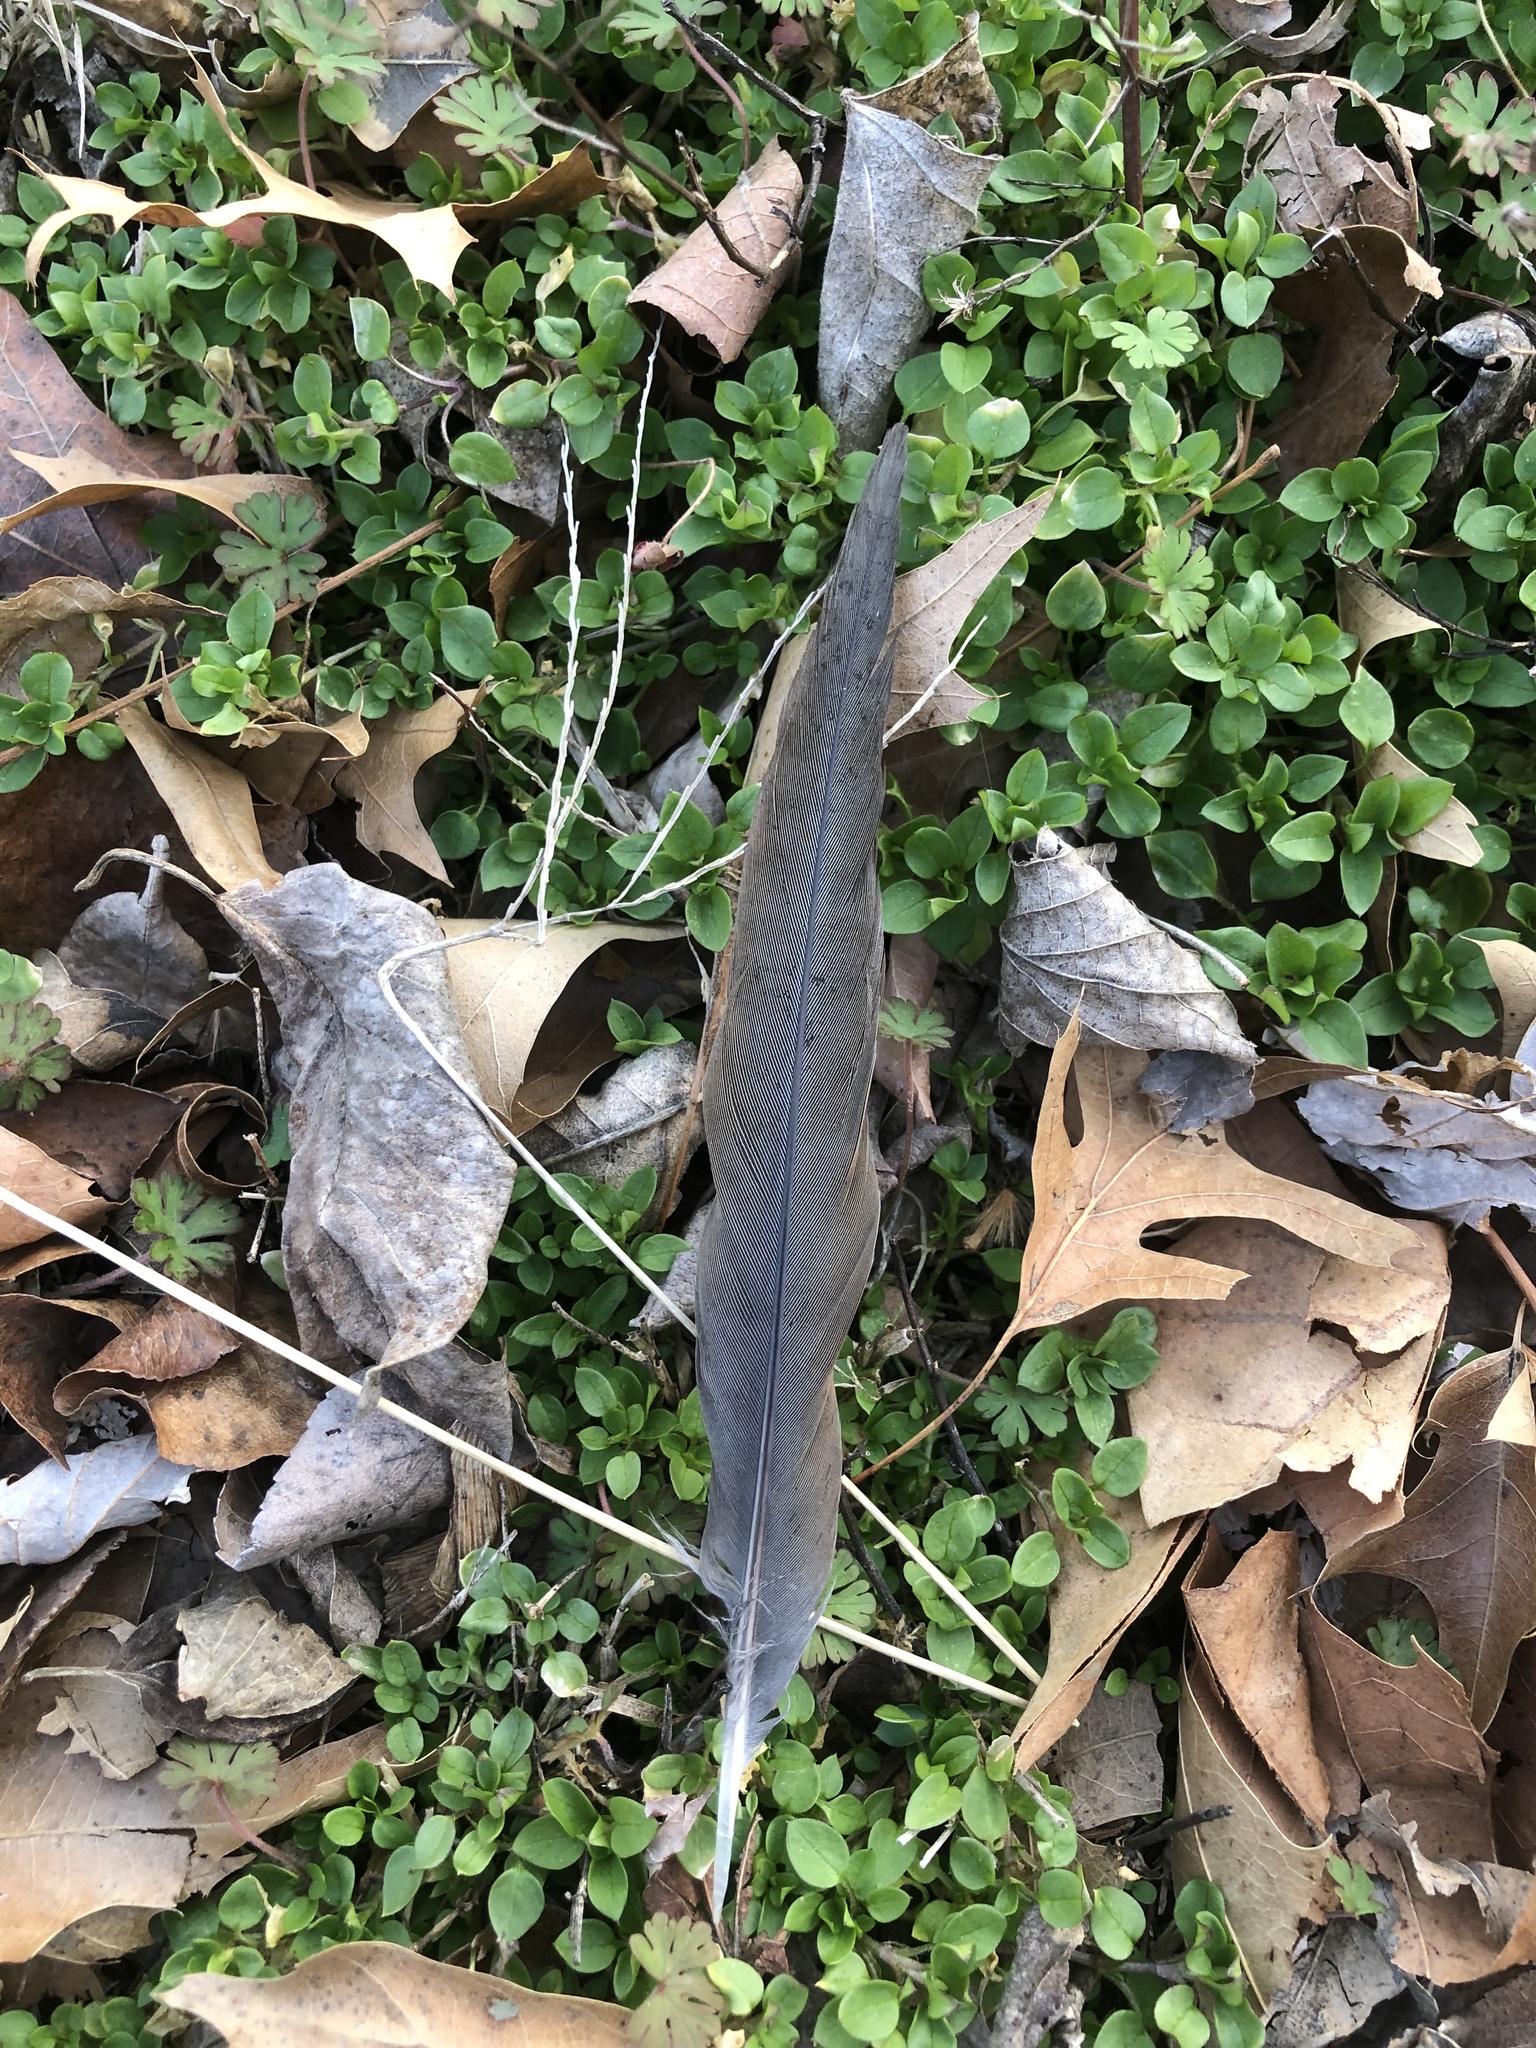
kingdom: Animalia
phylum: Chordata
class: Aves
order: Columbiformes
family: Columbidae
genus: Zenaida
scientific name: Zenaida macroura
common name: Mourning dove
